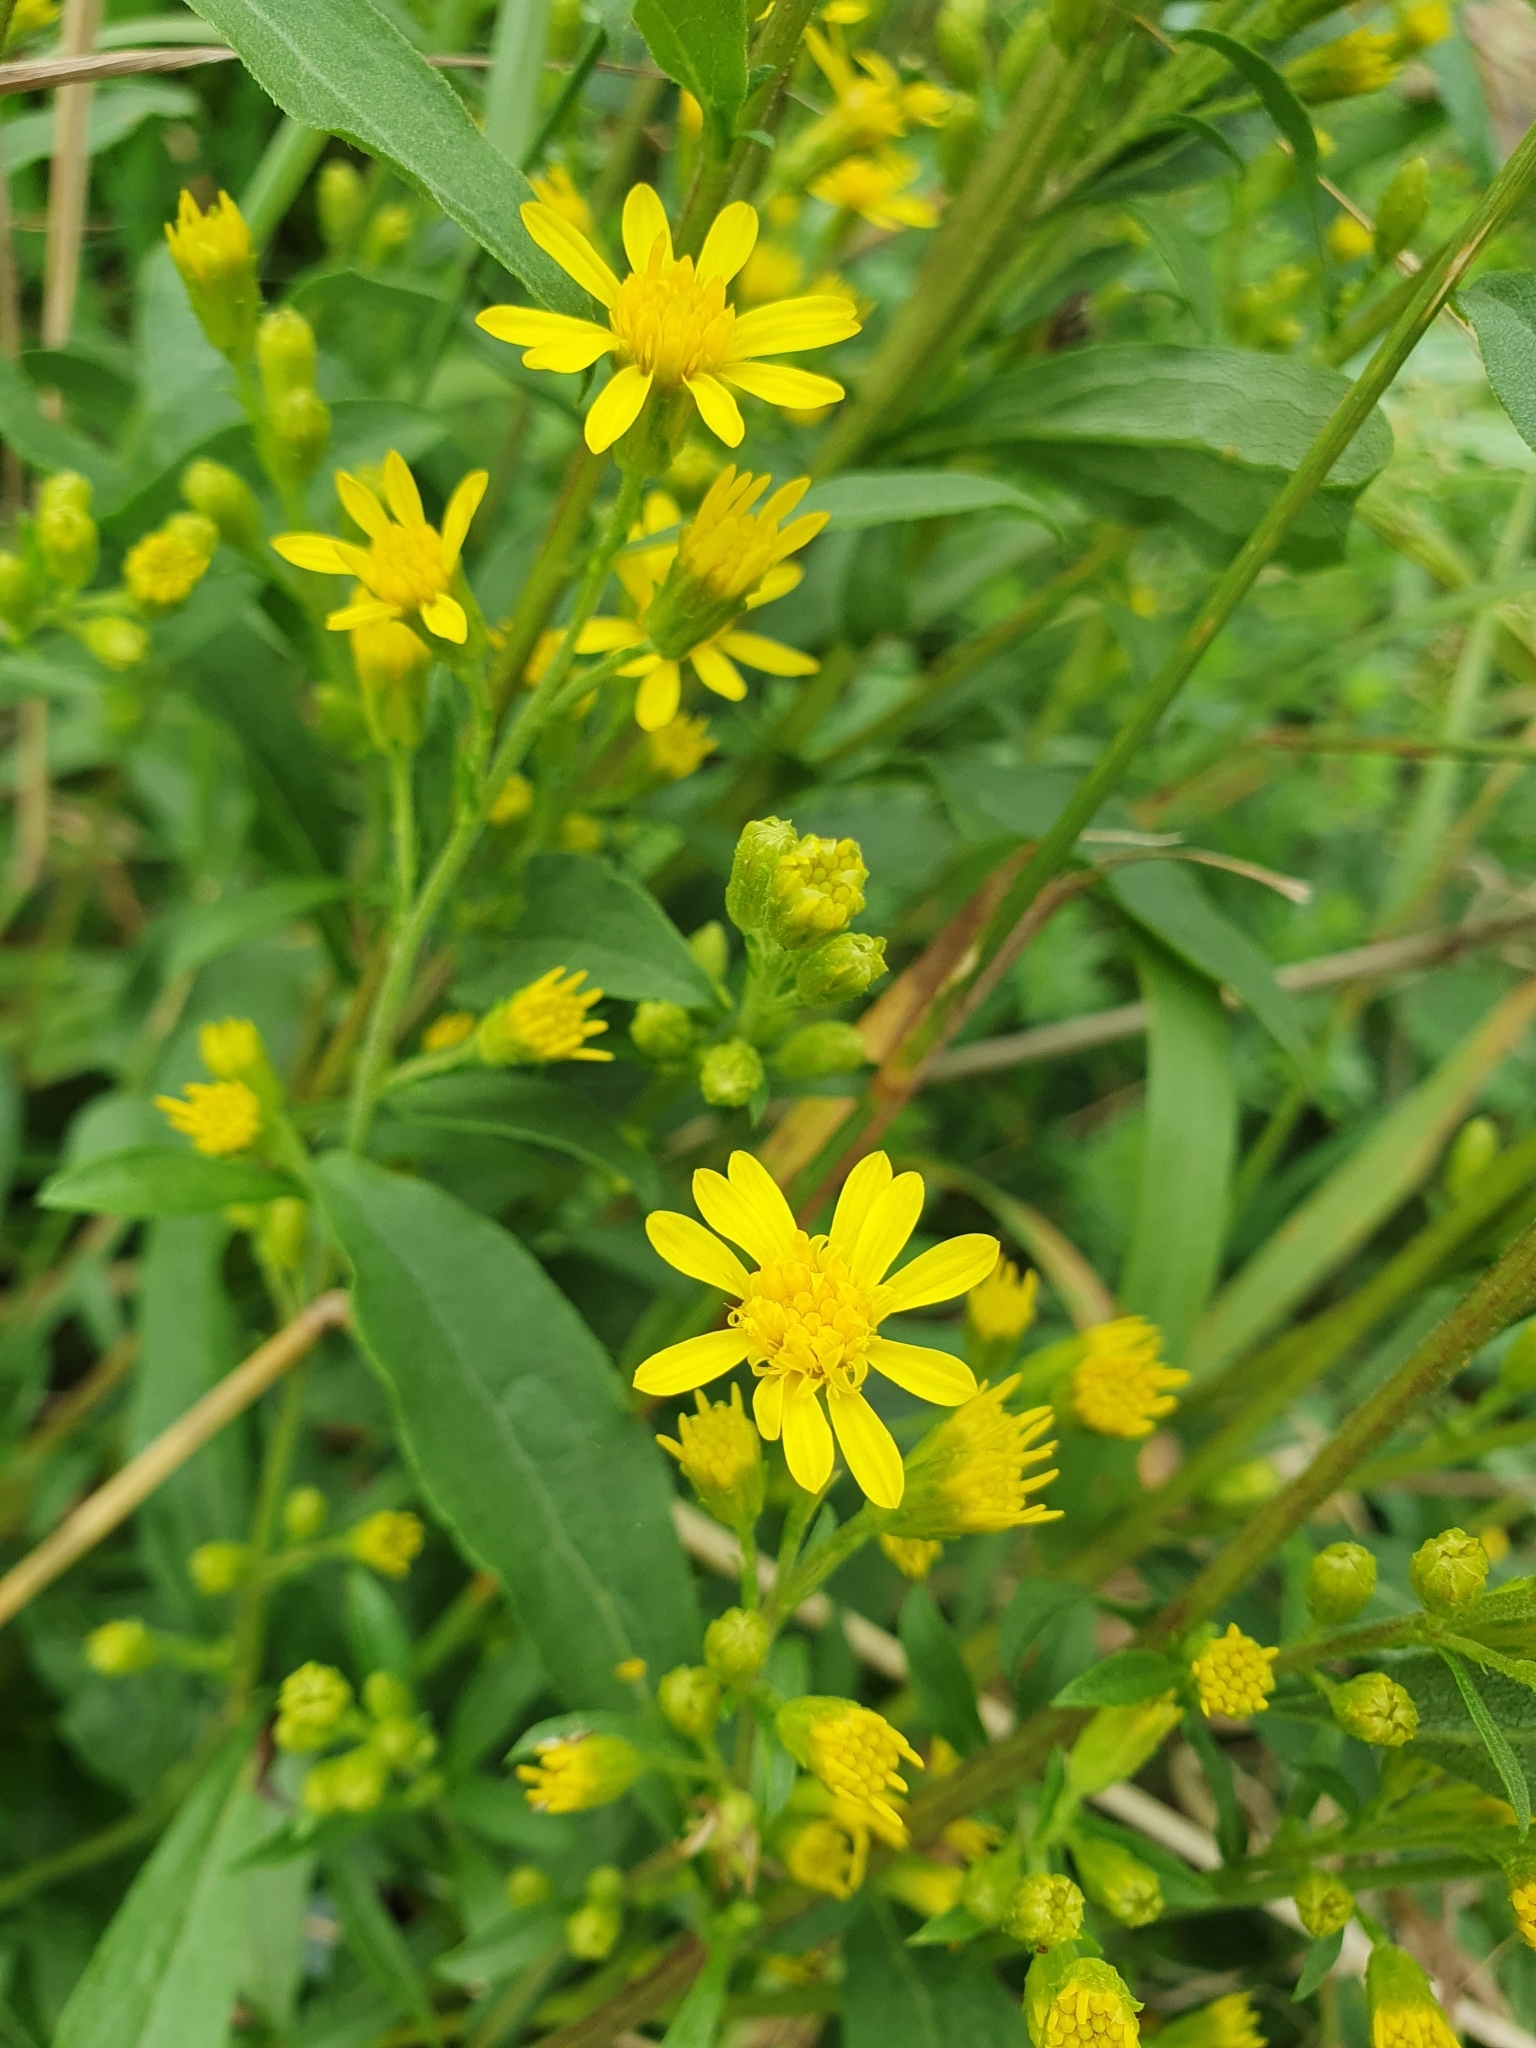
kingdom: Plantae
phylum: Tracheophyta
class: Magnoliopsida
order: Asterales
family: Asteraceae
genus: Solidago
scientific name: Solidago virgaurea
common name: Goldenrod
